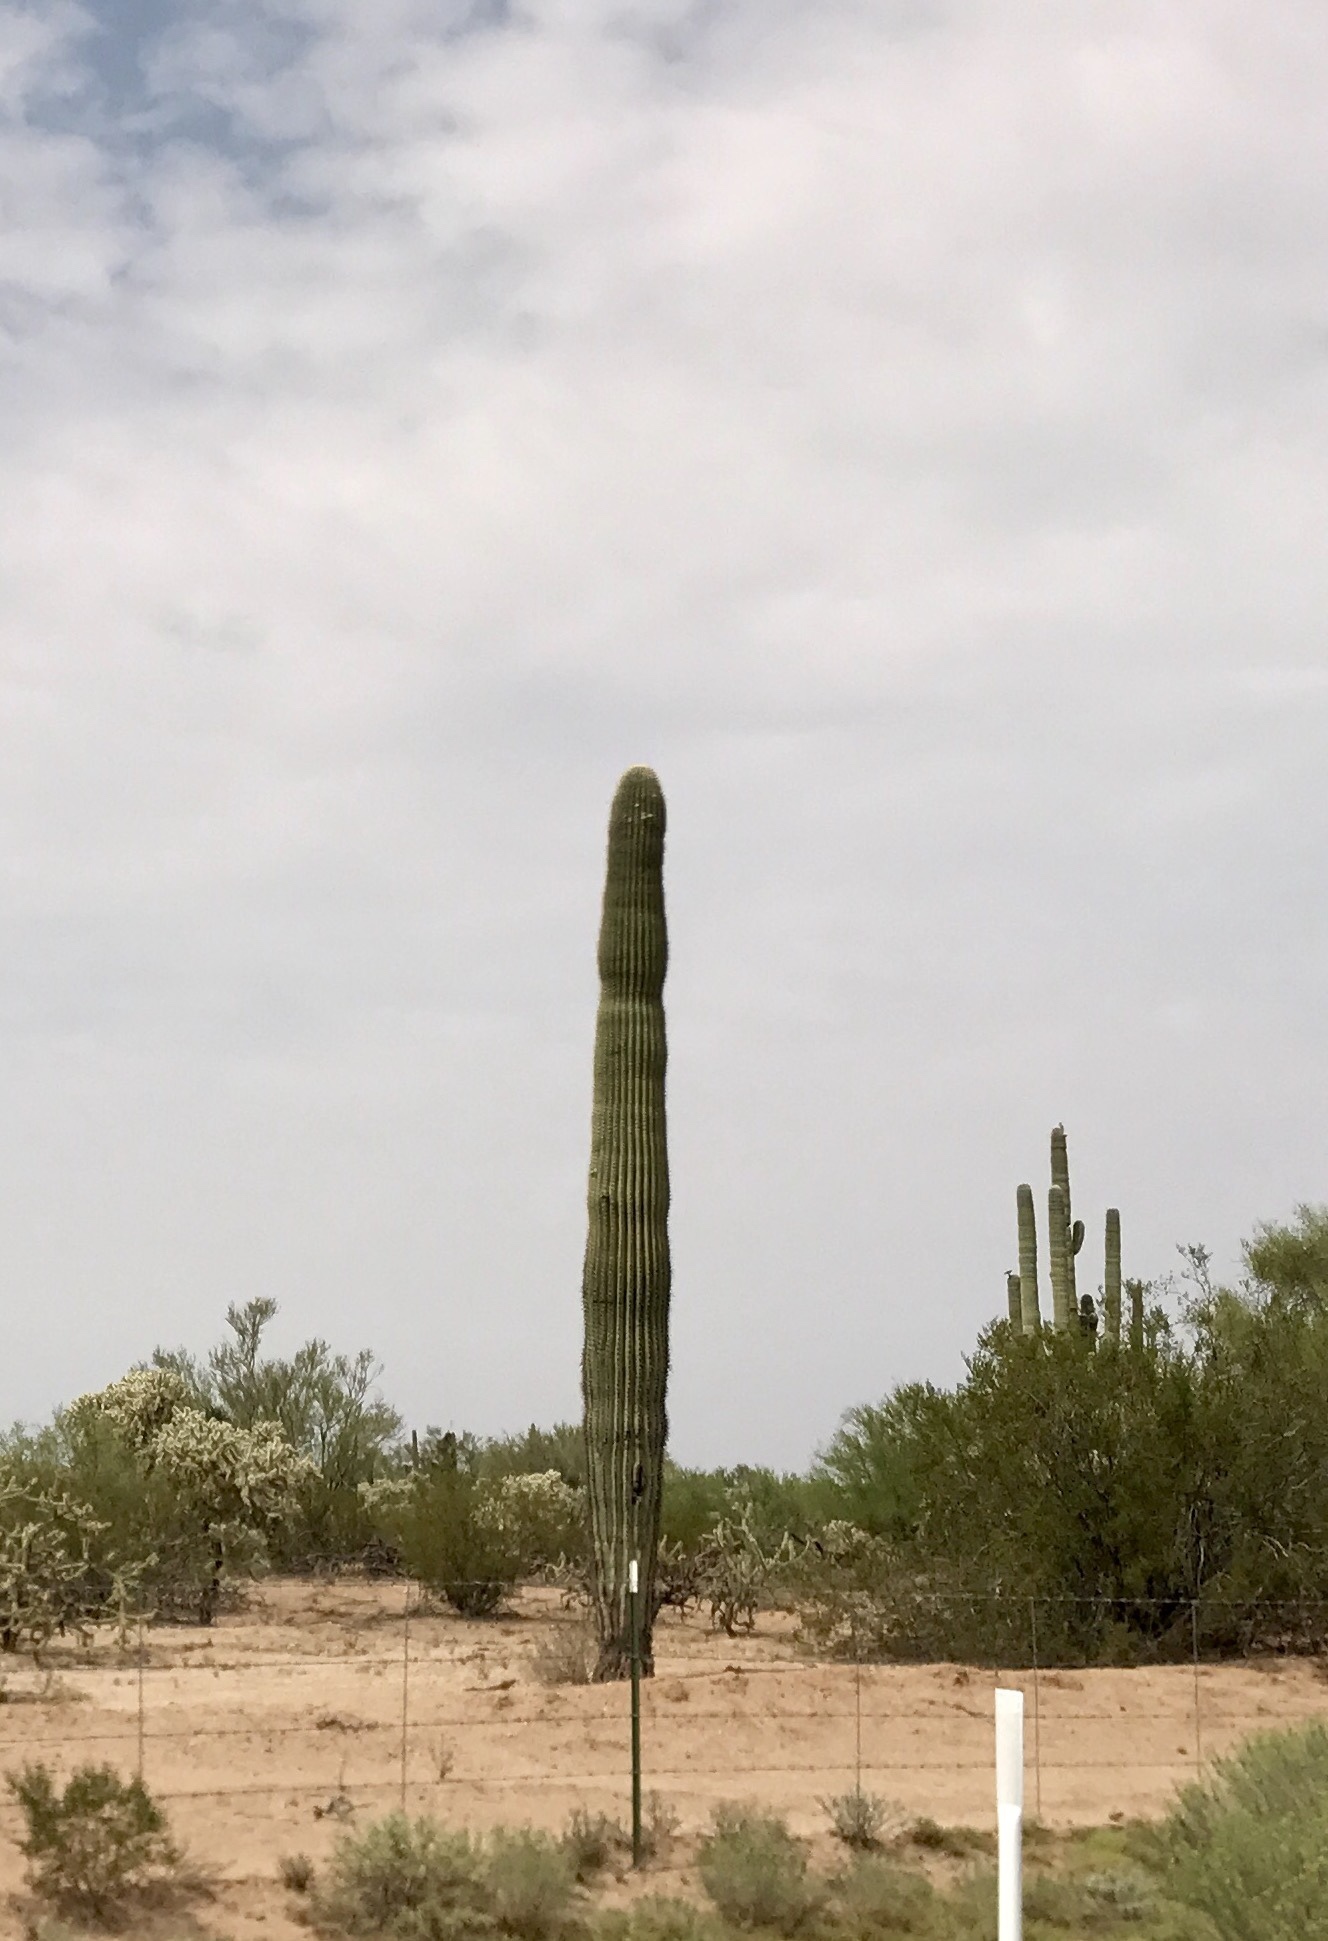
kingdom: Plantae
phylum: Tracheophyta
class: Magnoliopsida
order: Caryophyllales
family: Cactaceae
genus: Carnegiea
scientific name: Carnegiea gigantea
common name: Saguaro
